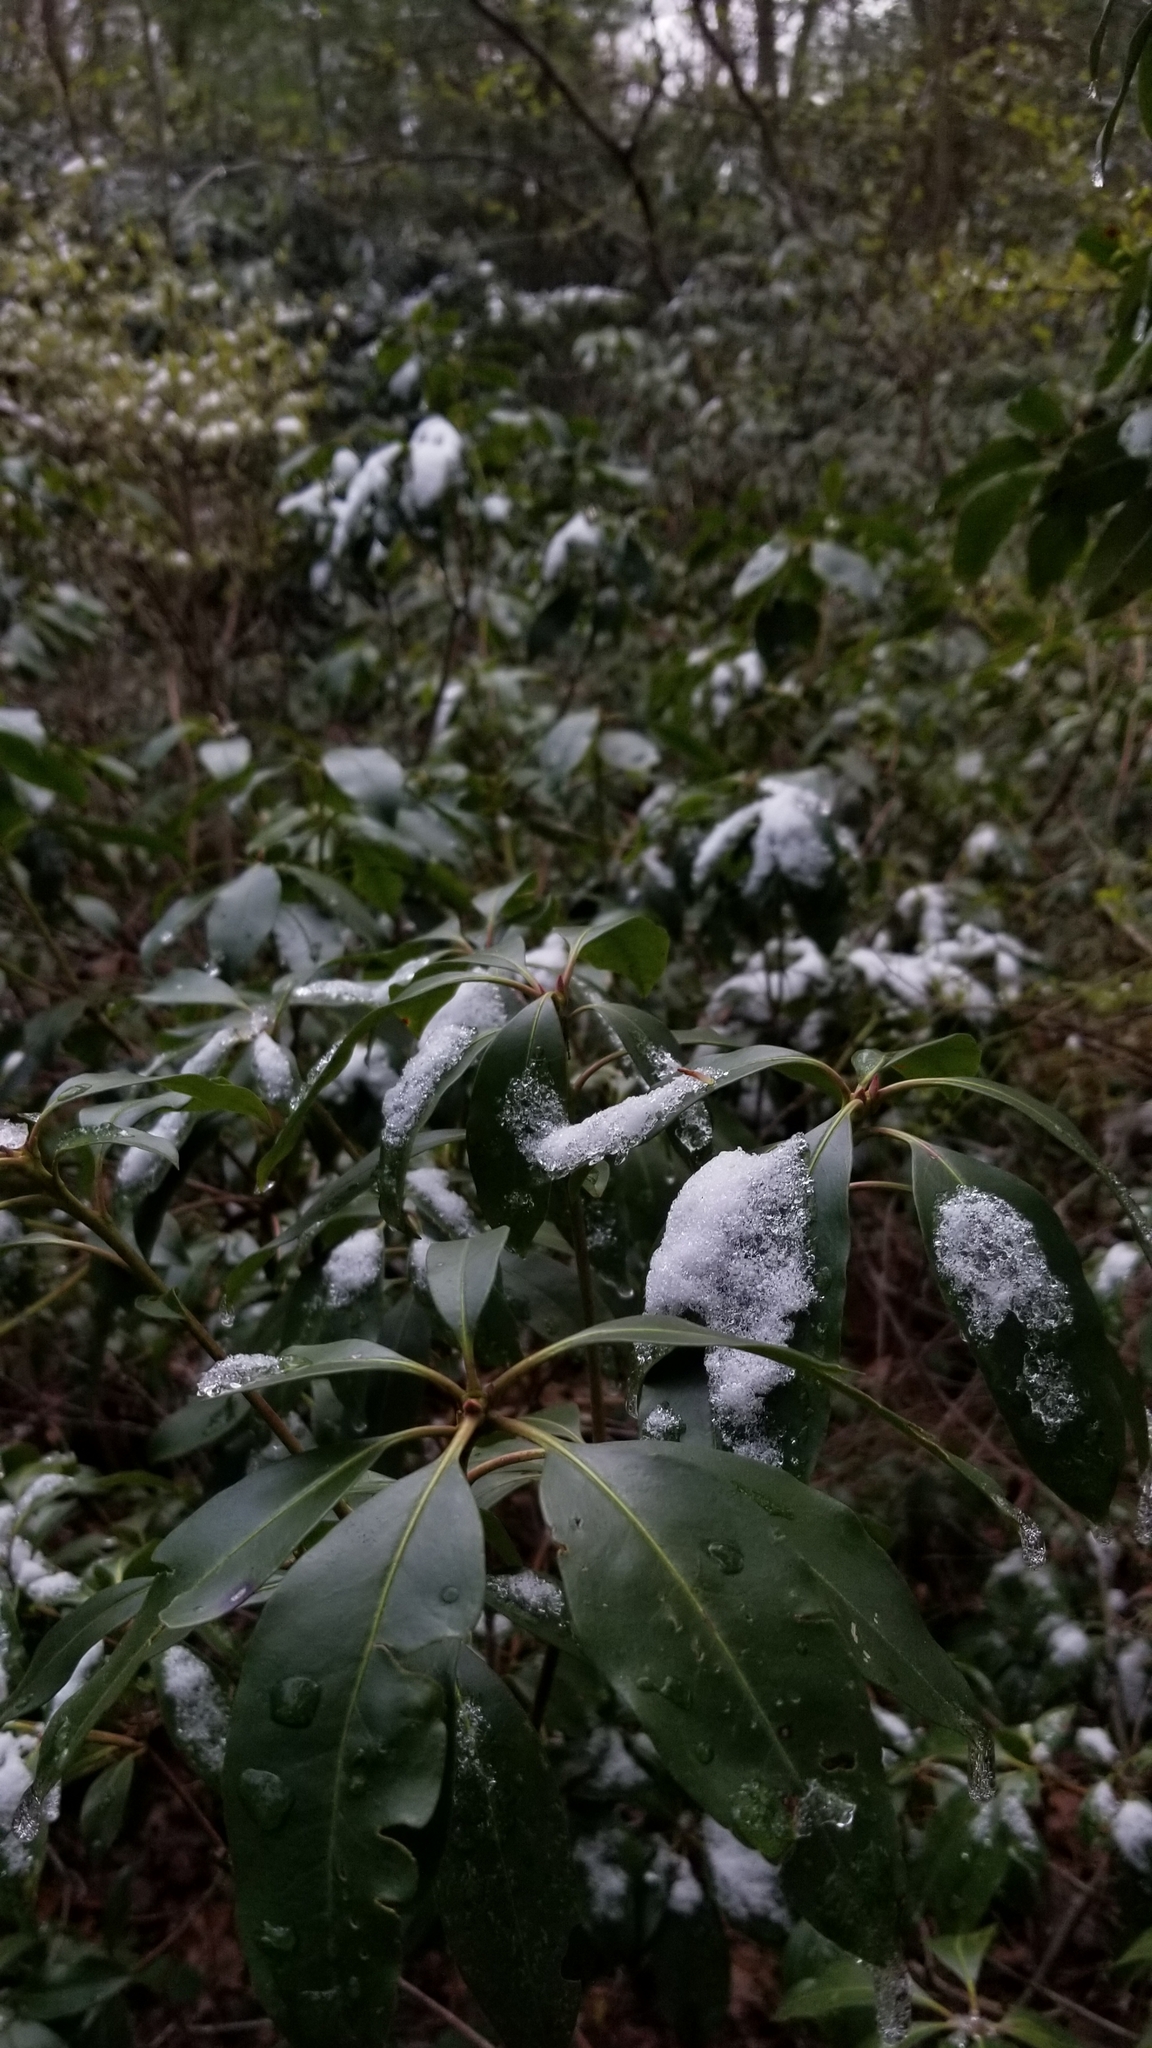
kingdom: Plantae
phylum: Tracheophyta
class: Magnoliopsida
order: Ericales
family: Ericaceae
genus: Kalmia
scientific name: Kalmia latifolia
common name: Mountain-laurel
